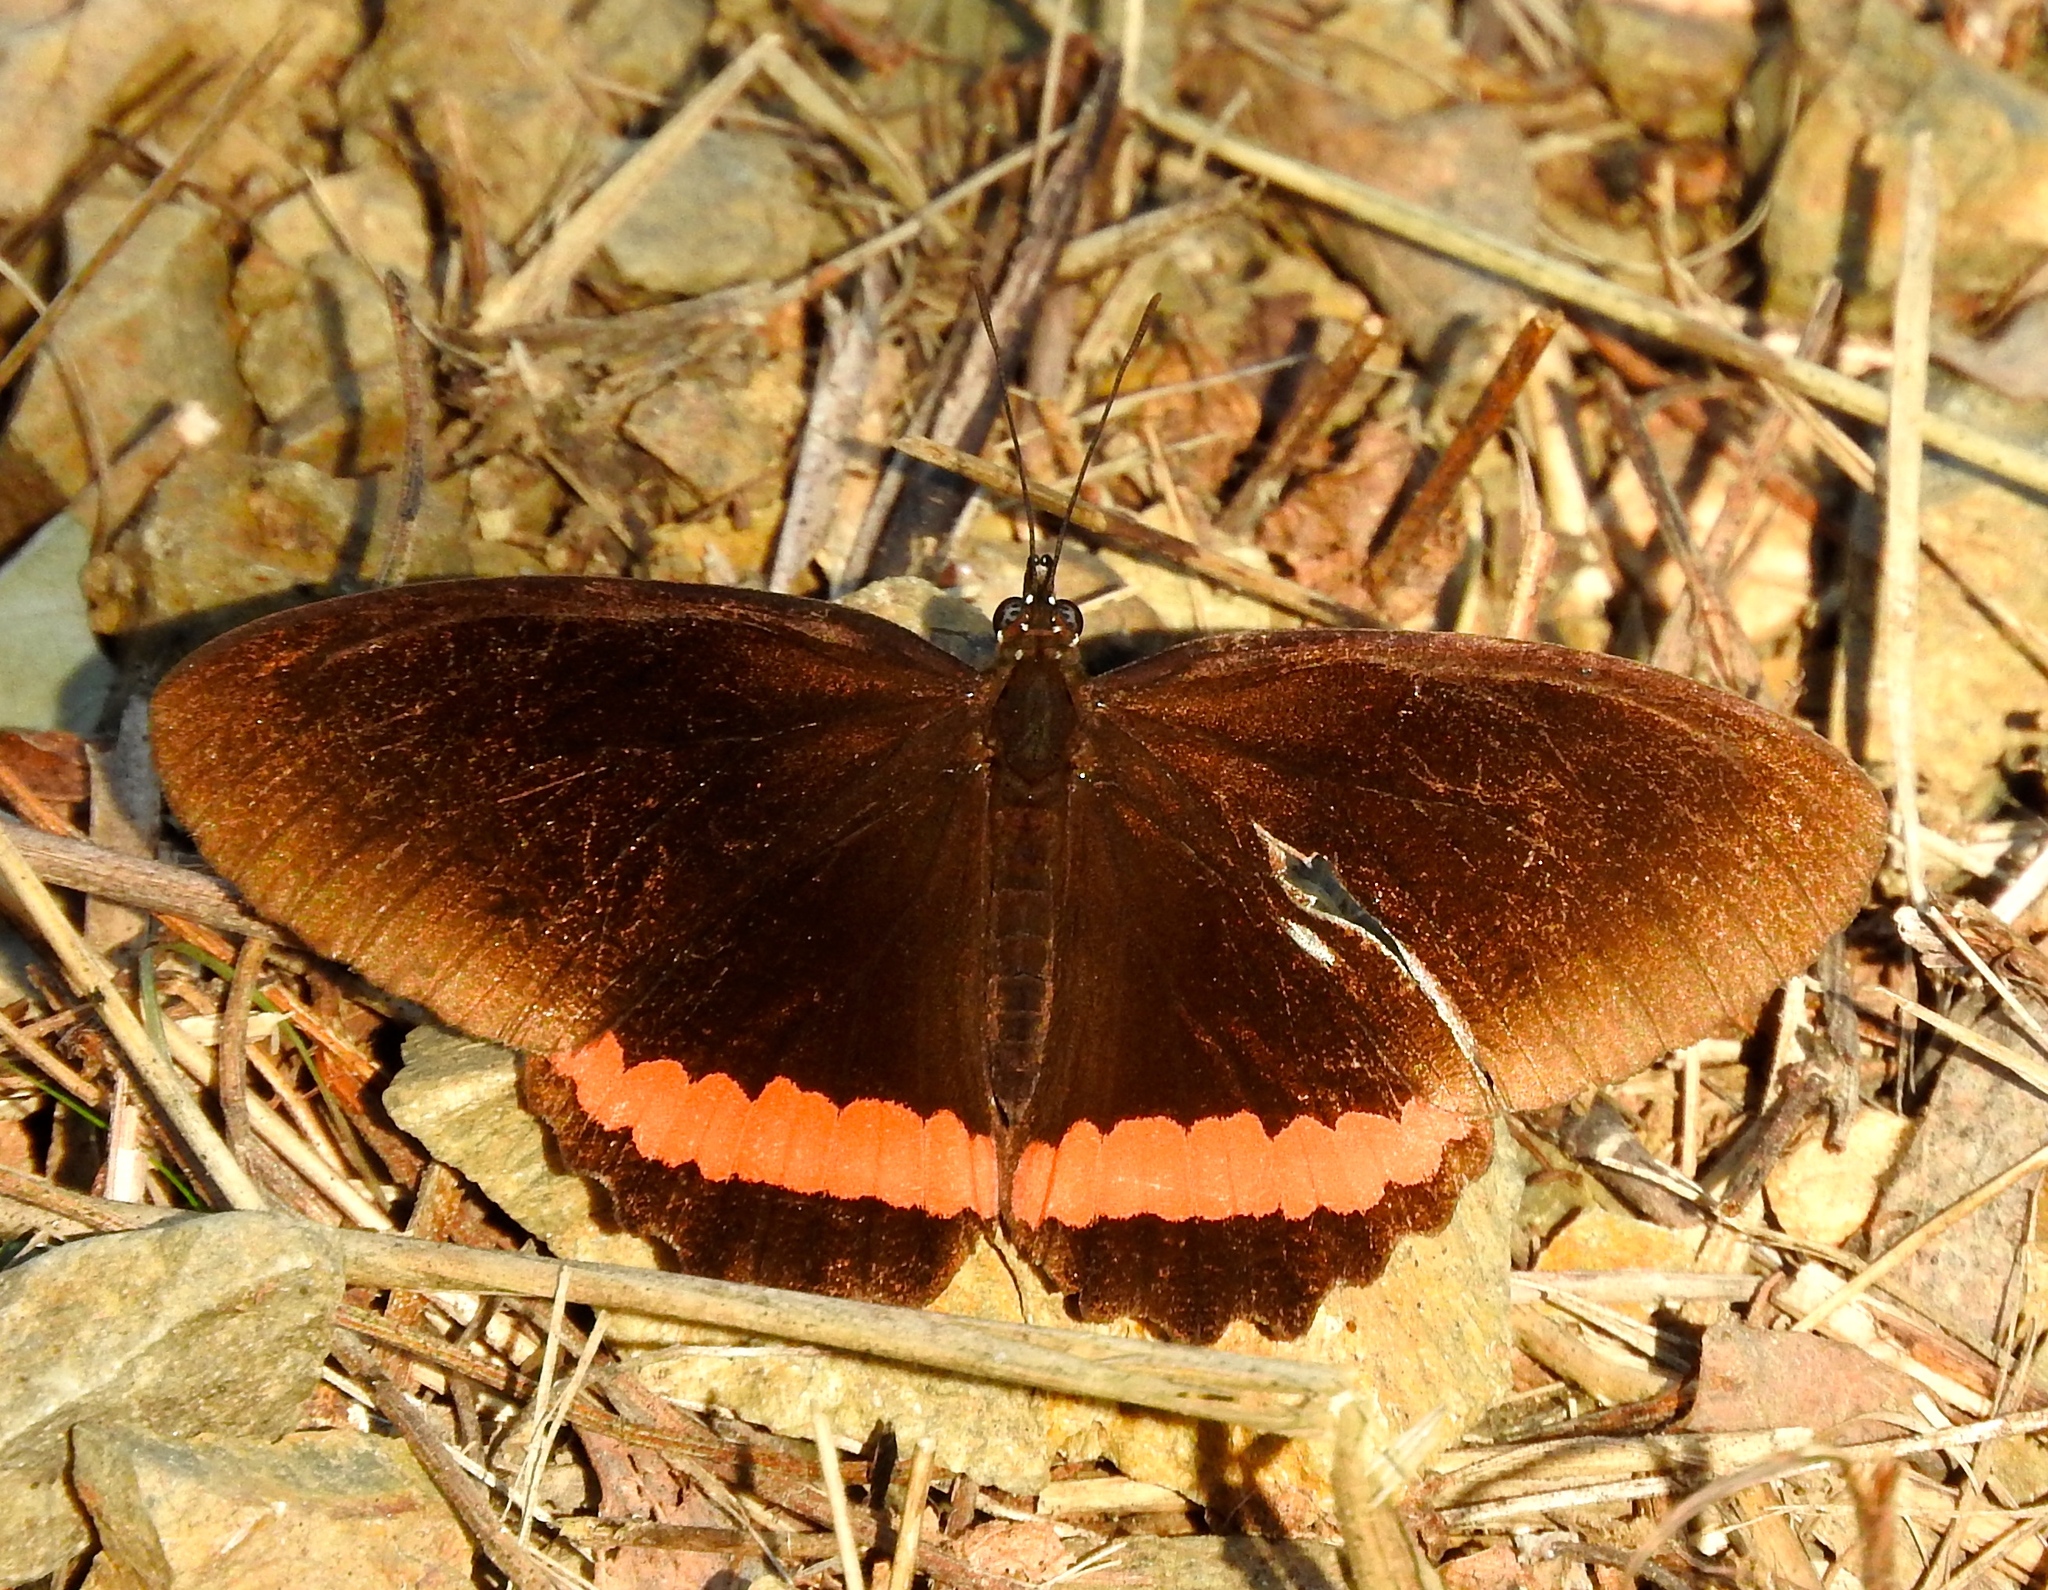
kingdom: Animalia
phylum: Arthropoda
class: Insecta
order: Lepidoptera
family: Nymphalidae
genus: Biblis
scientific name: Biblis aganisa
